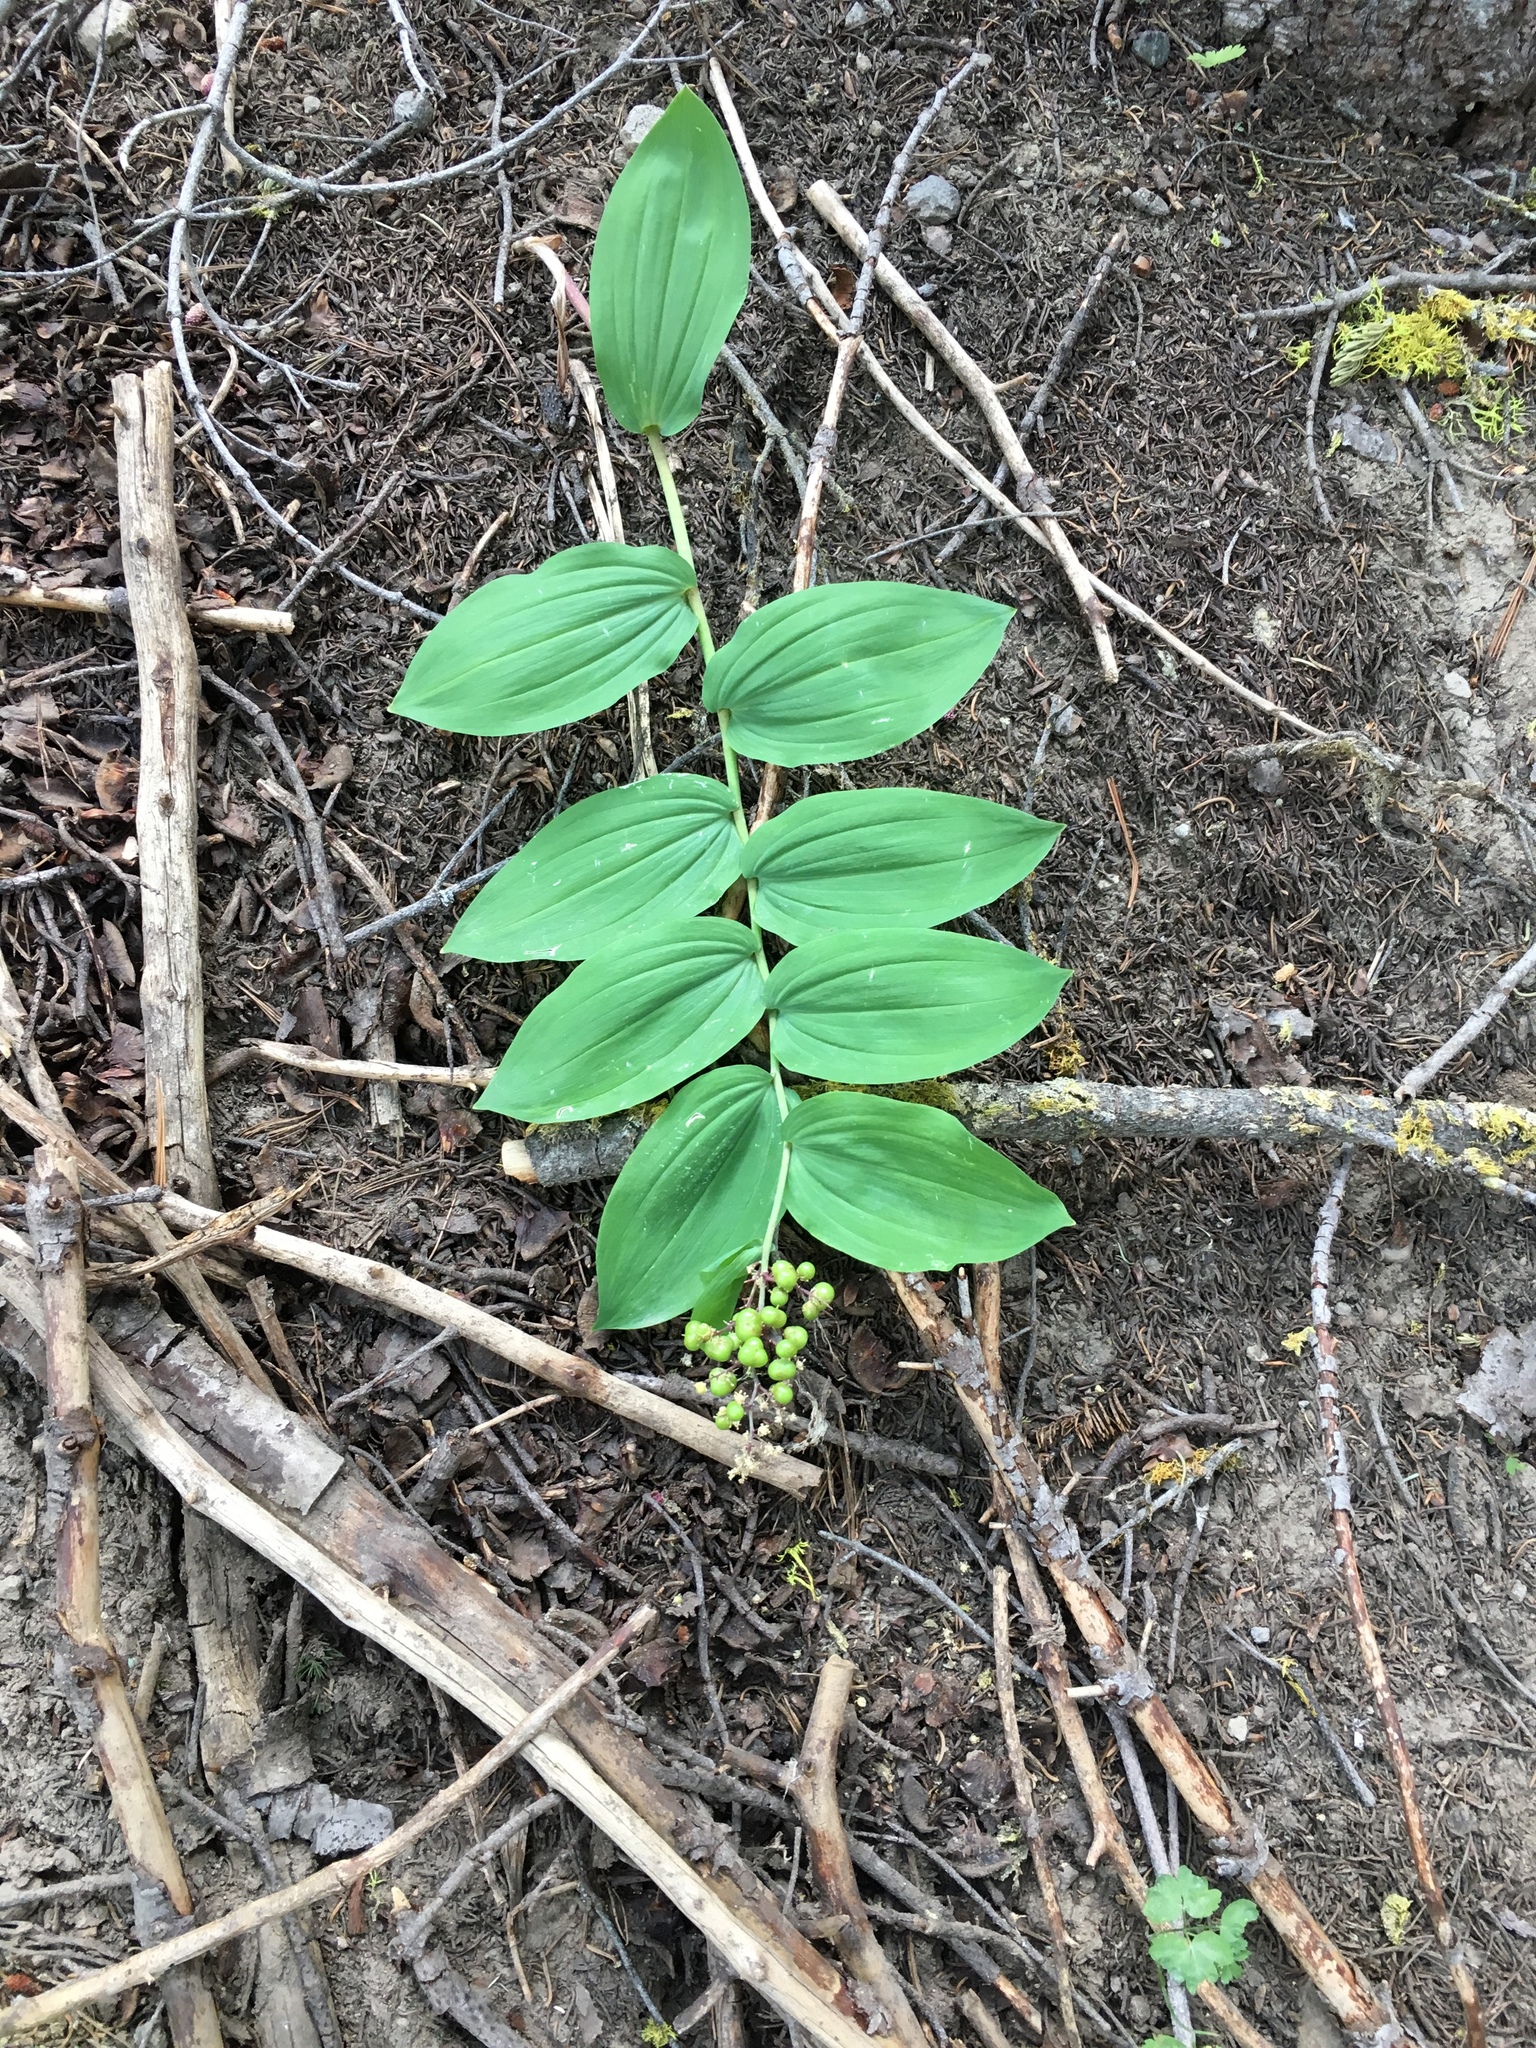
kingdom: Plantae
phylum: Tracheophyta
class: Liliopsida
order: Asparagales
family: Asparagaceae
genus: Maianthemum
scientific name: Maianthemum racemosum
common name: False spikenard
